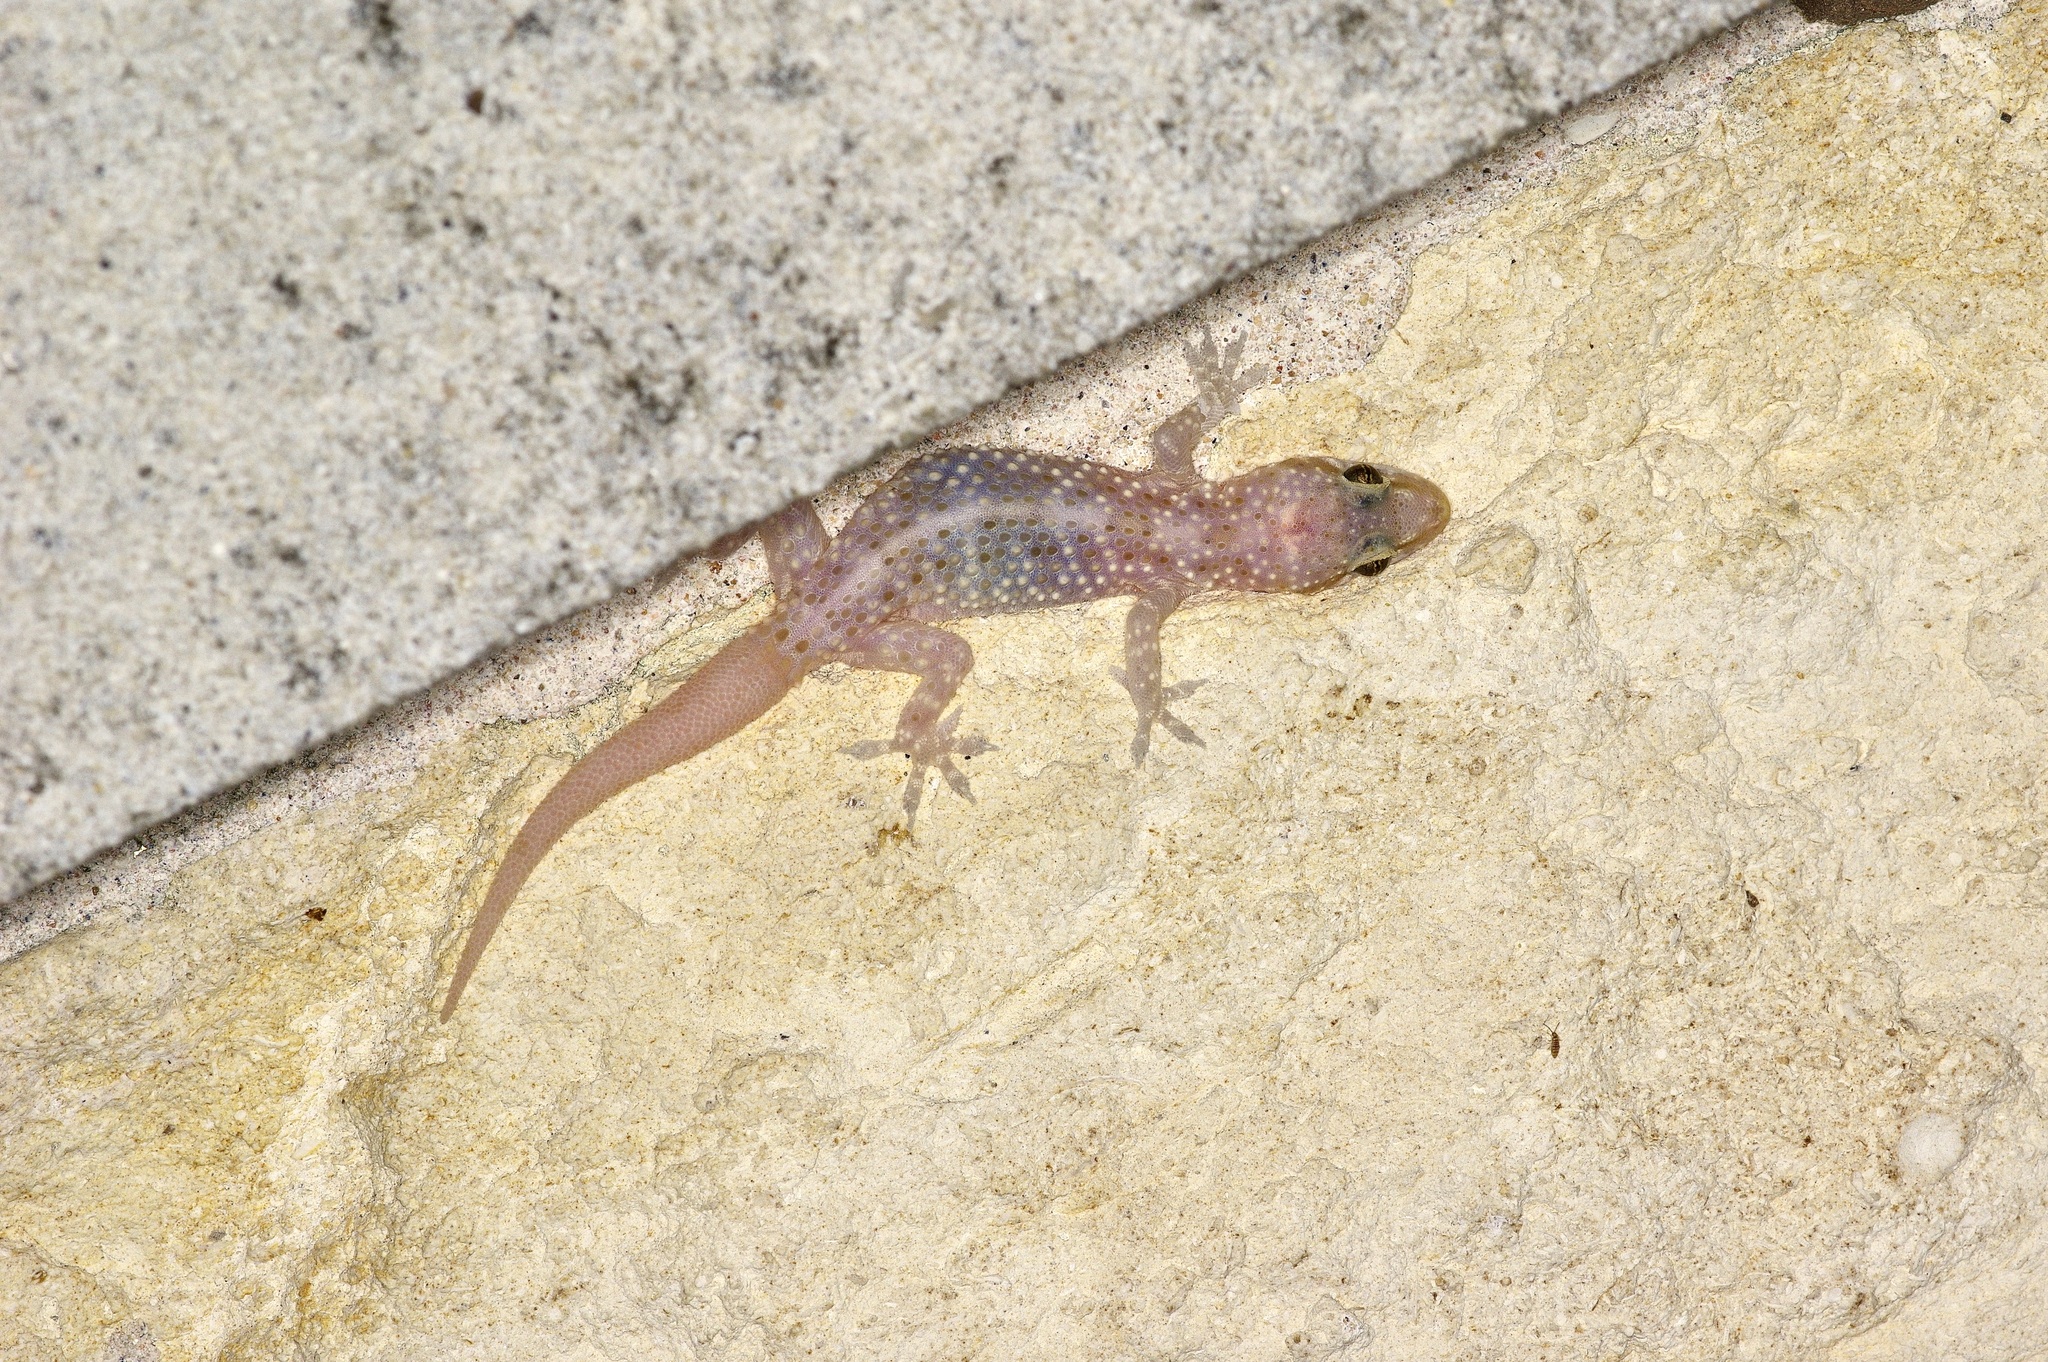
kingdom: Animalia
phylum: Chordata
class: Squamata
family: Gekkonidae
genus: Hemidactylus
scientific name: Hemidactylus turcicus
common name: Turkish gecko
